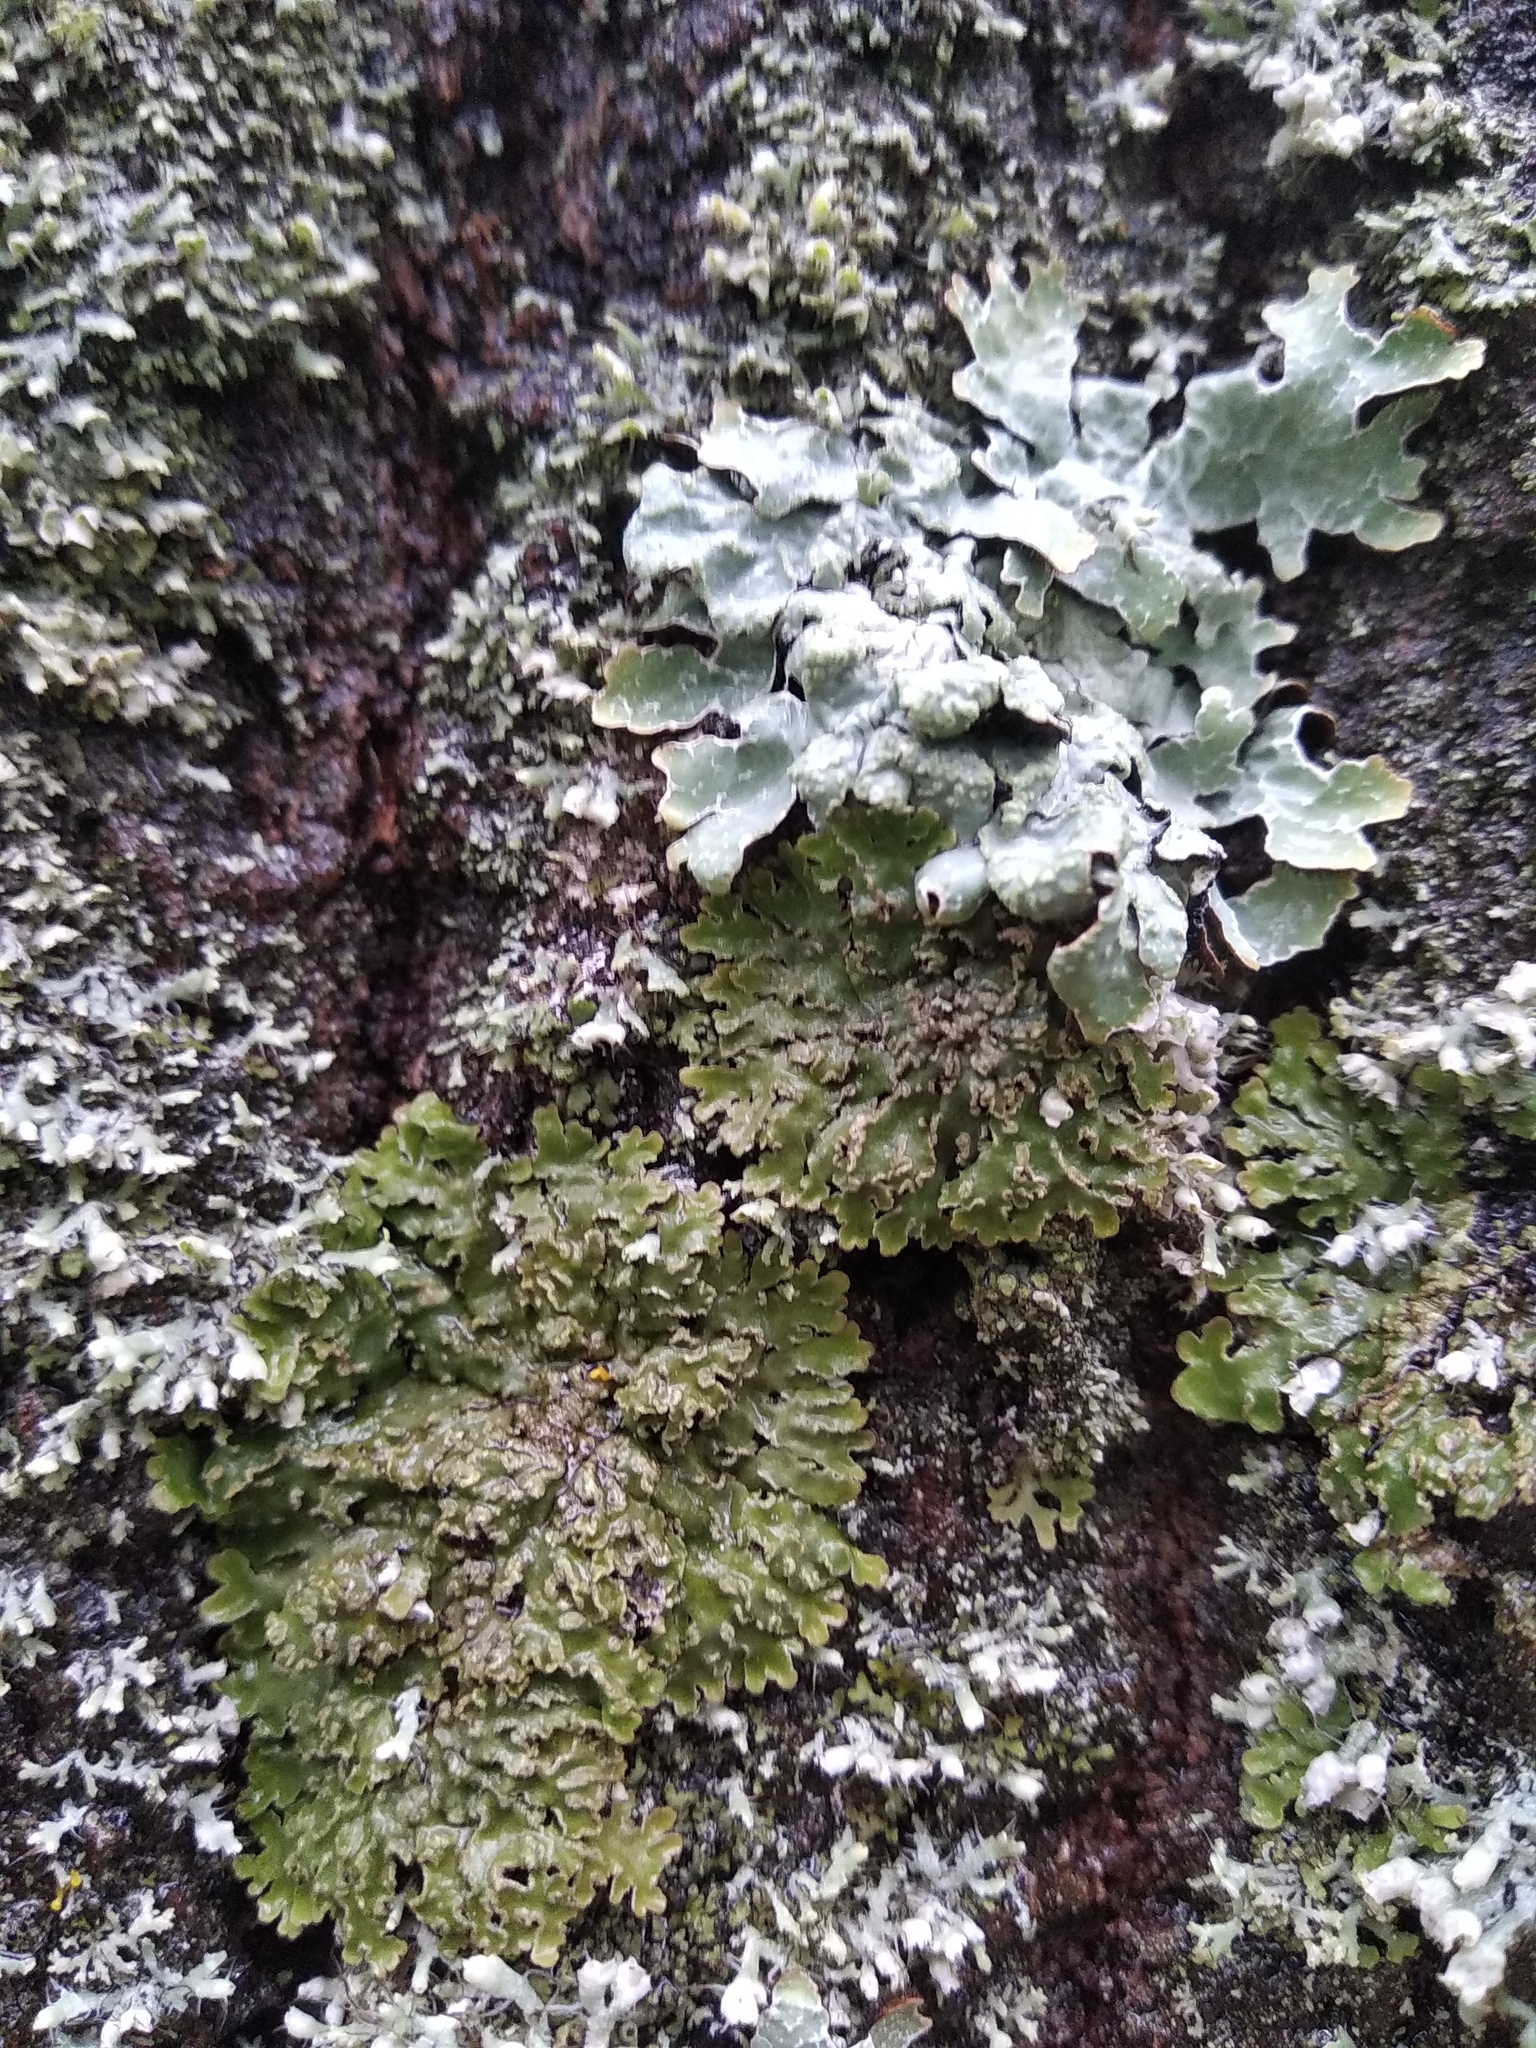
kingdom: Fungi
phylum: Ascomycota
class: Lecanoromycetes
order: Caliciales
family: Physciaceae
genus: Physconia
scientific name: Physconia enteroxantha
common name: Yellow-edged frost lichen
